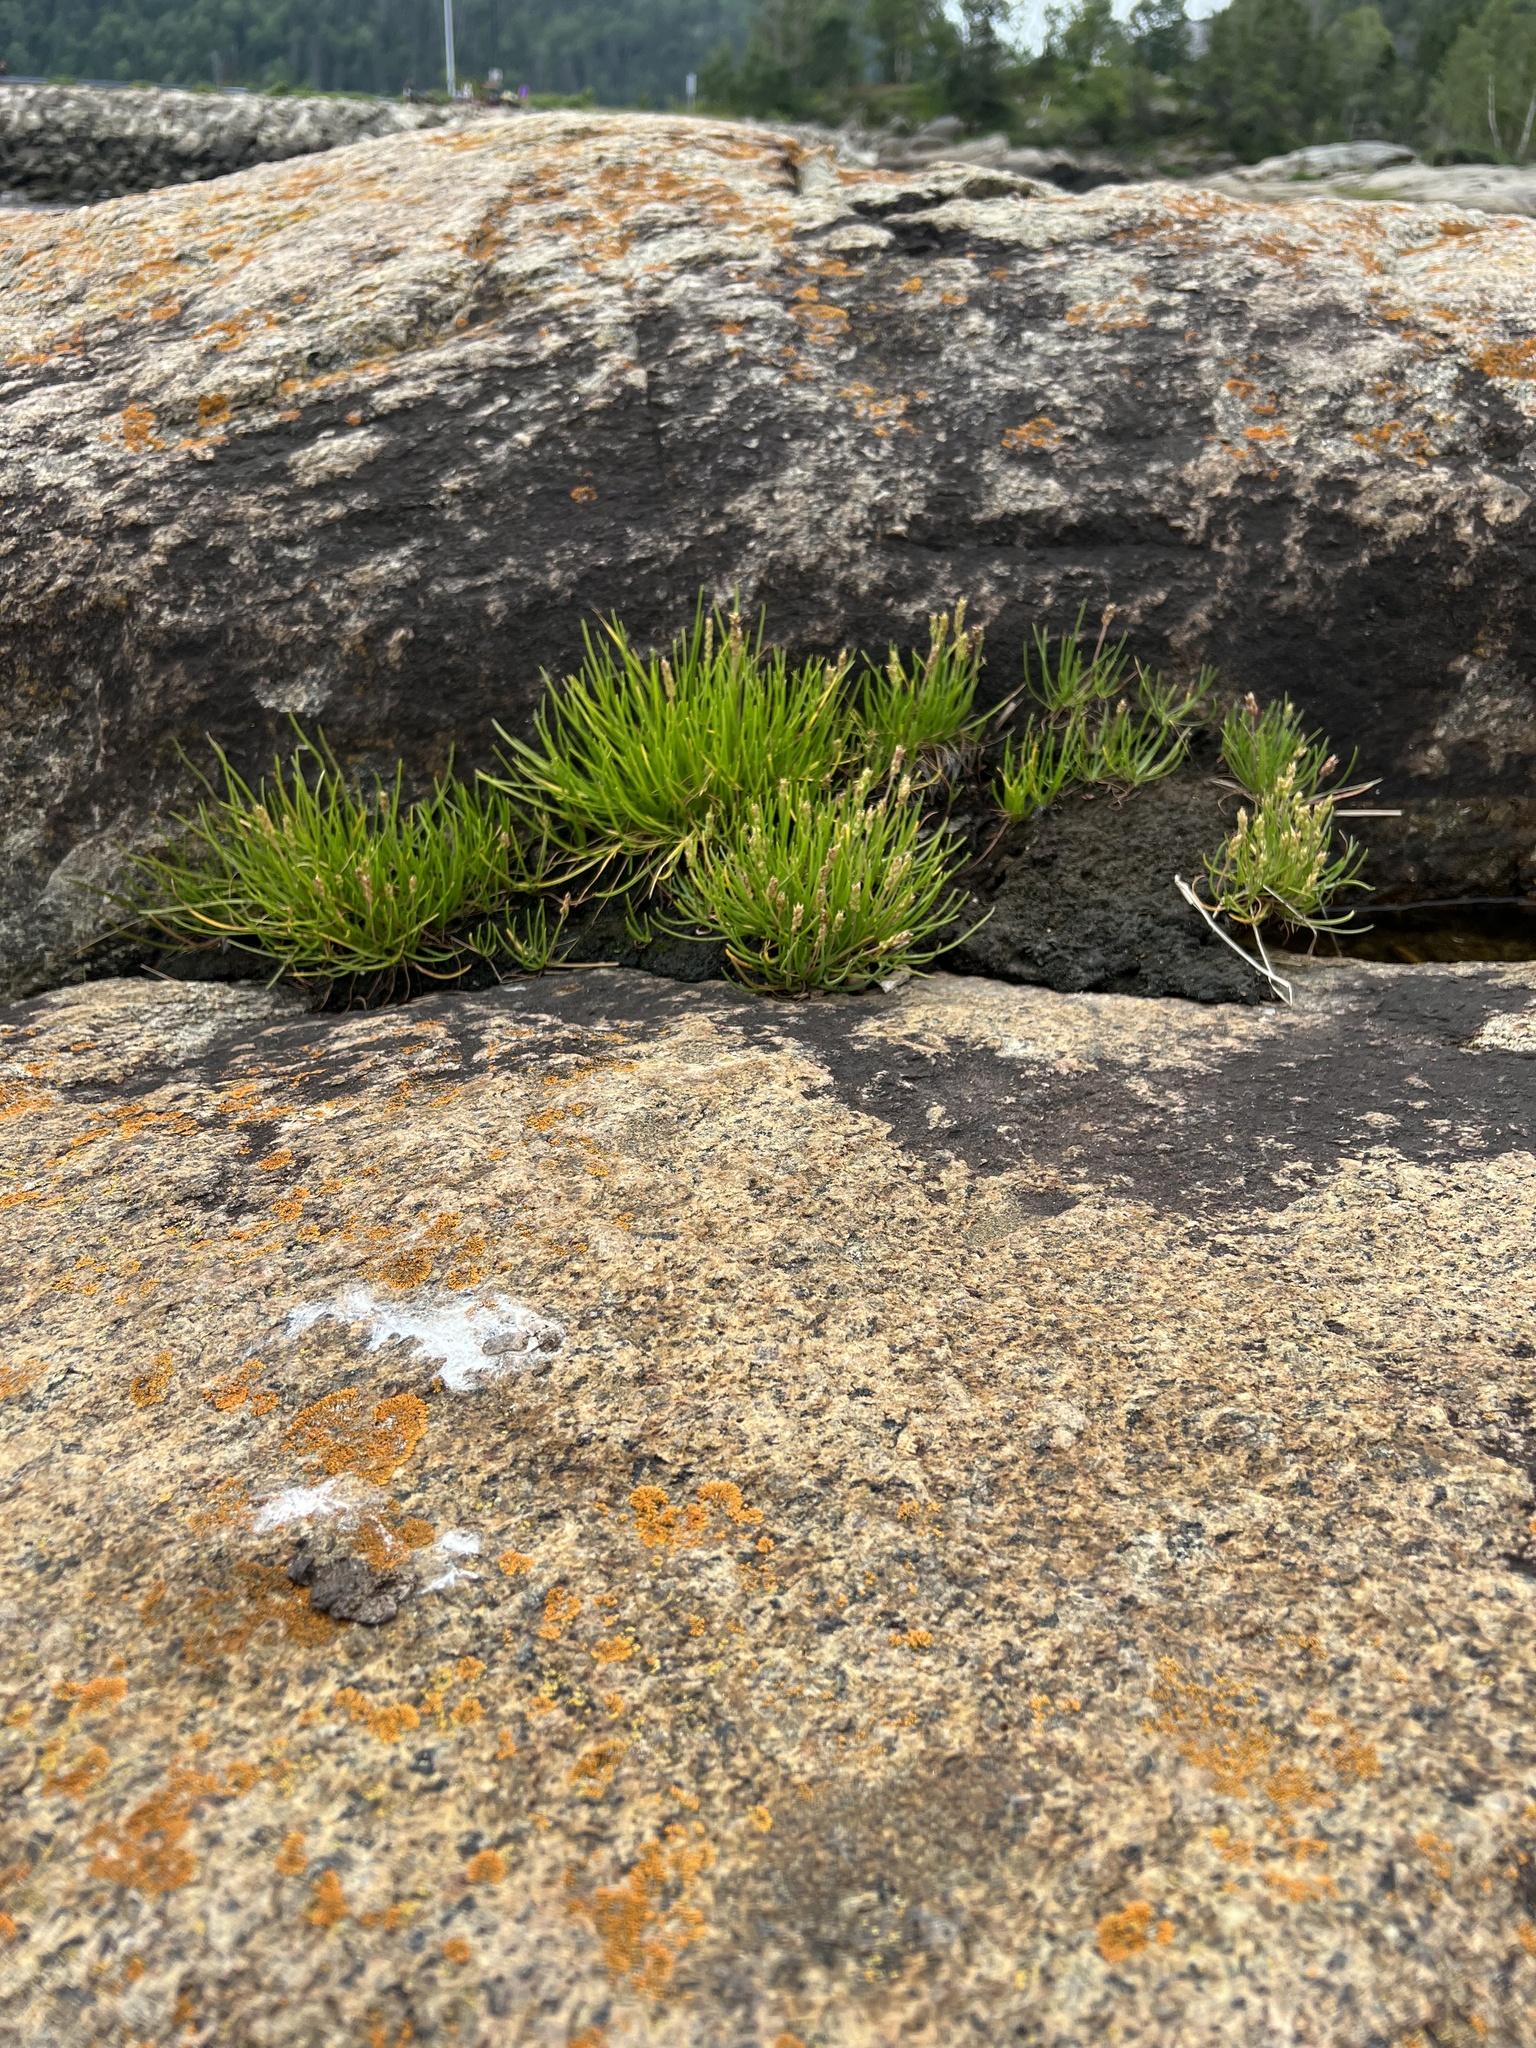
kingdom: Plantae
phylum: Tracheophyta
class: Magnoliopsida
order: Lamiales
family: Plantaginaceae
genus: Plantago
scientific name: Plantago maritima
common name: Sea plantain
